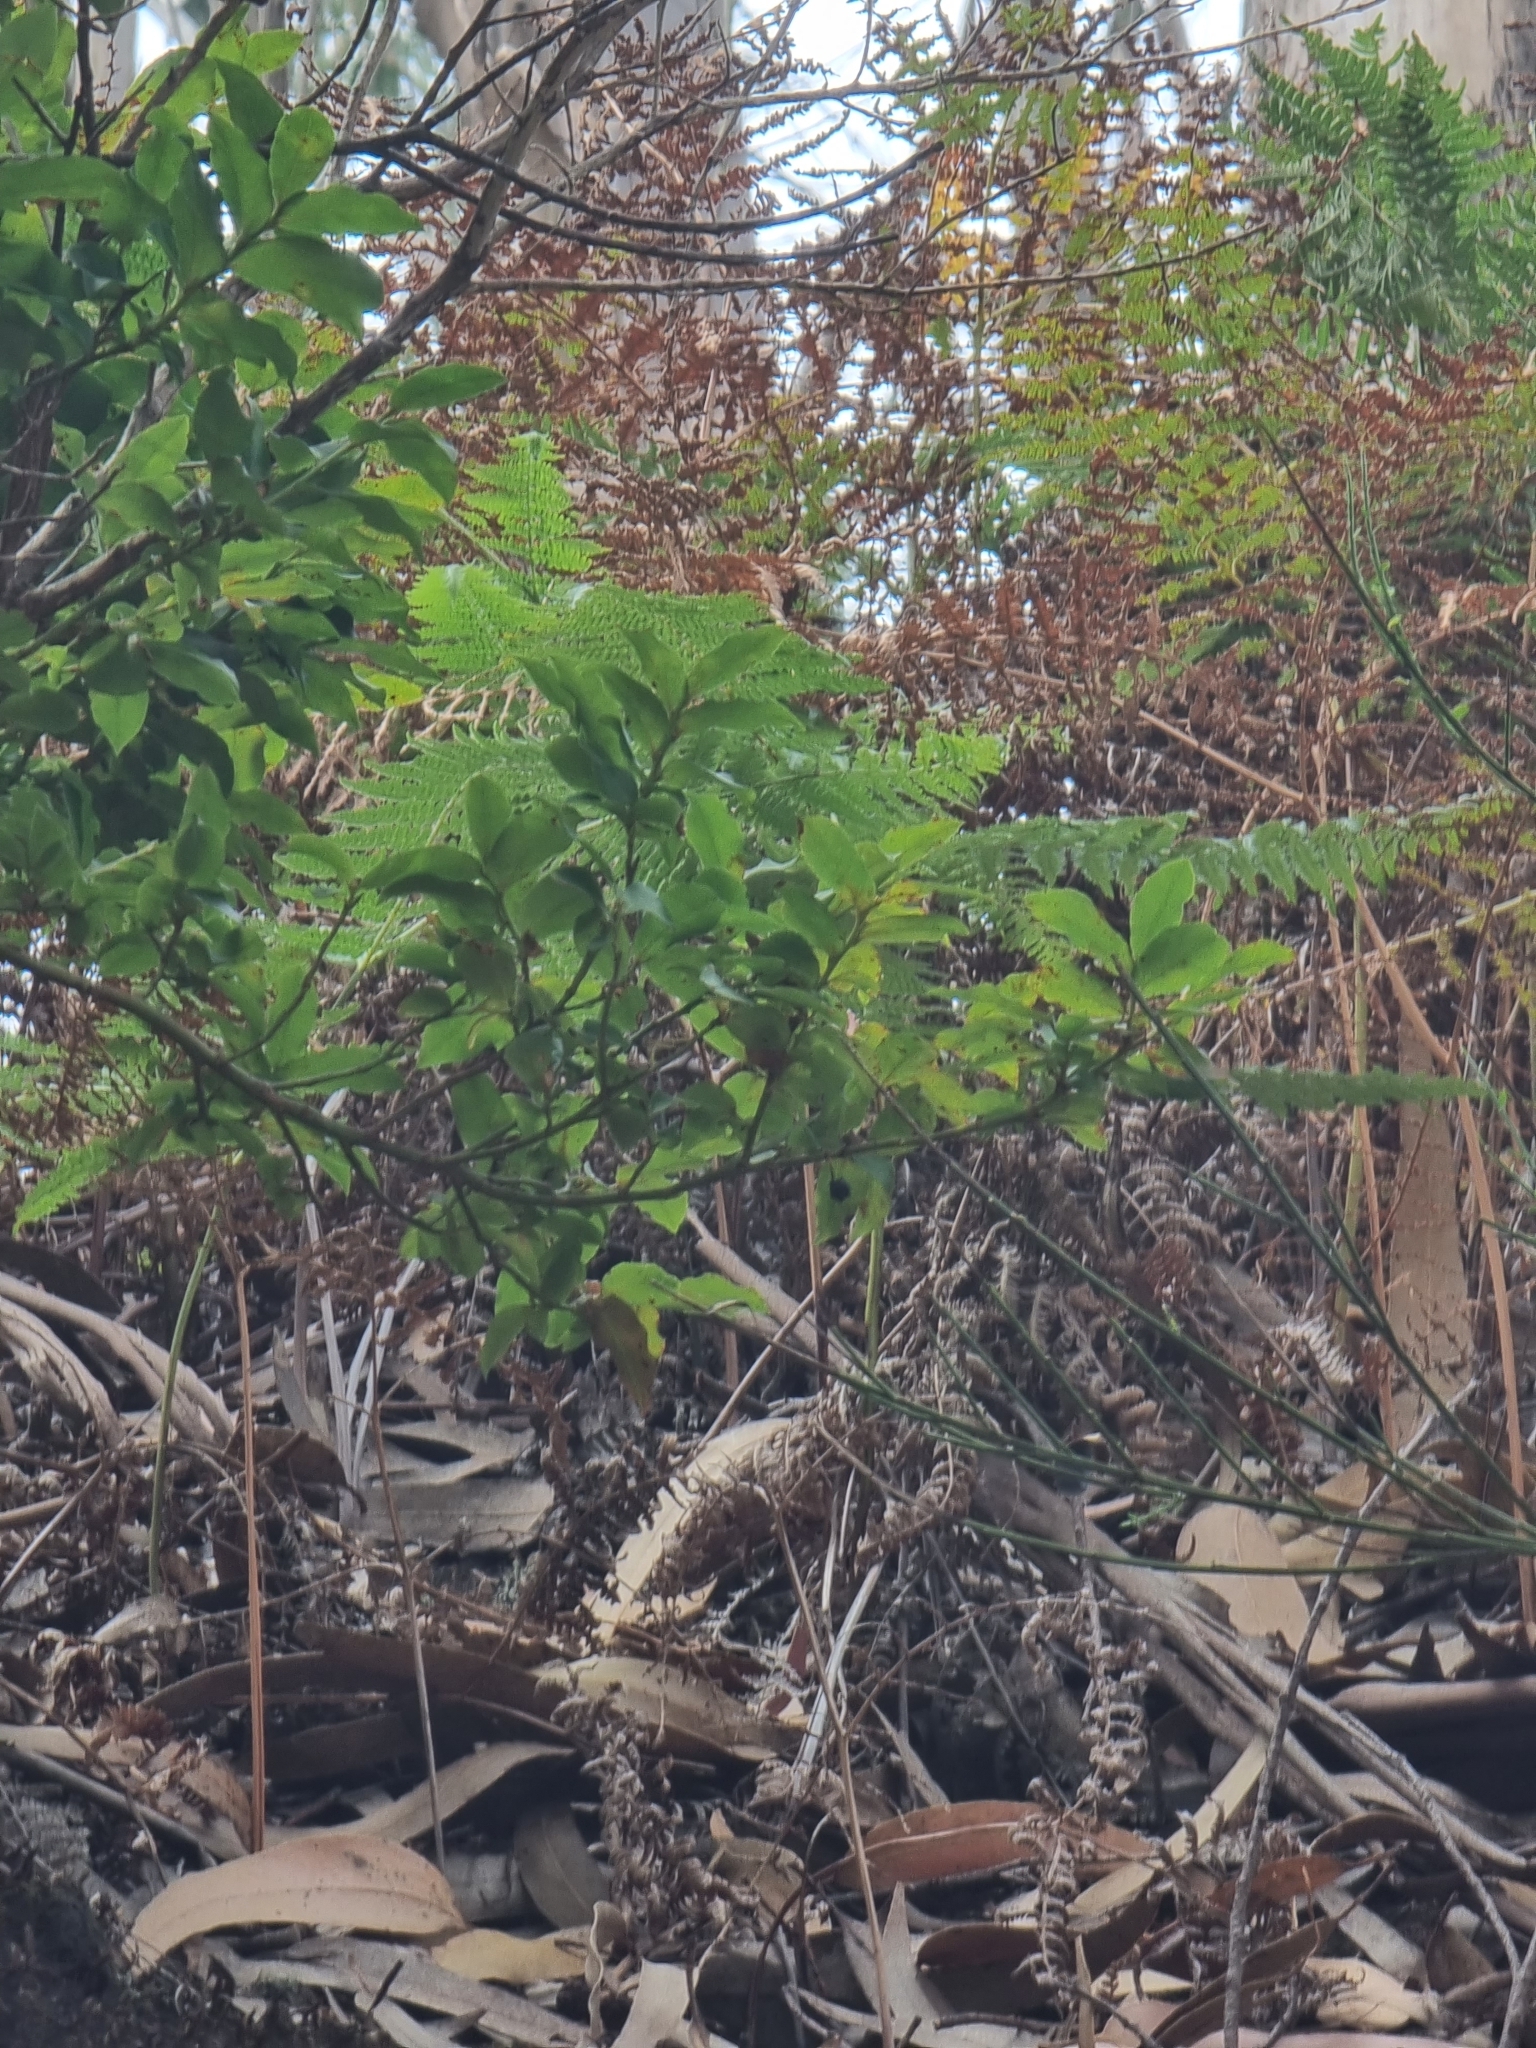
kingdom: Plantae
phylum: Tracheophyta
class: Magnoliopsida
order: Ericales
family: Ericaceae
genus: Vaccinium
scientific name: Vaccinium padifolium
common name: Madeiran blueberry
